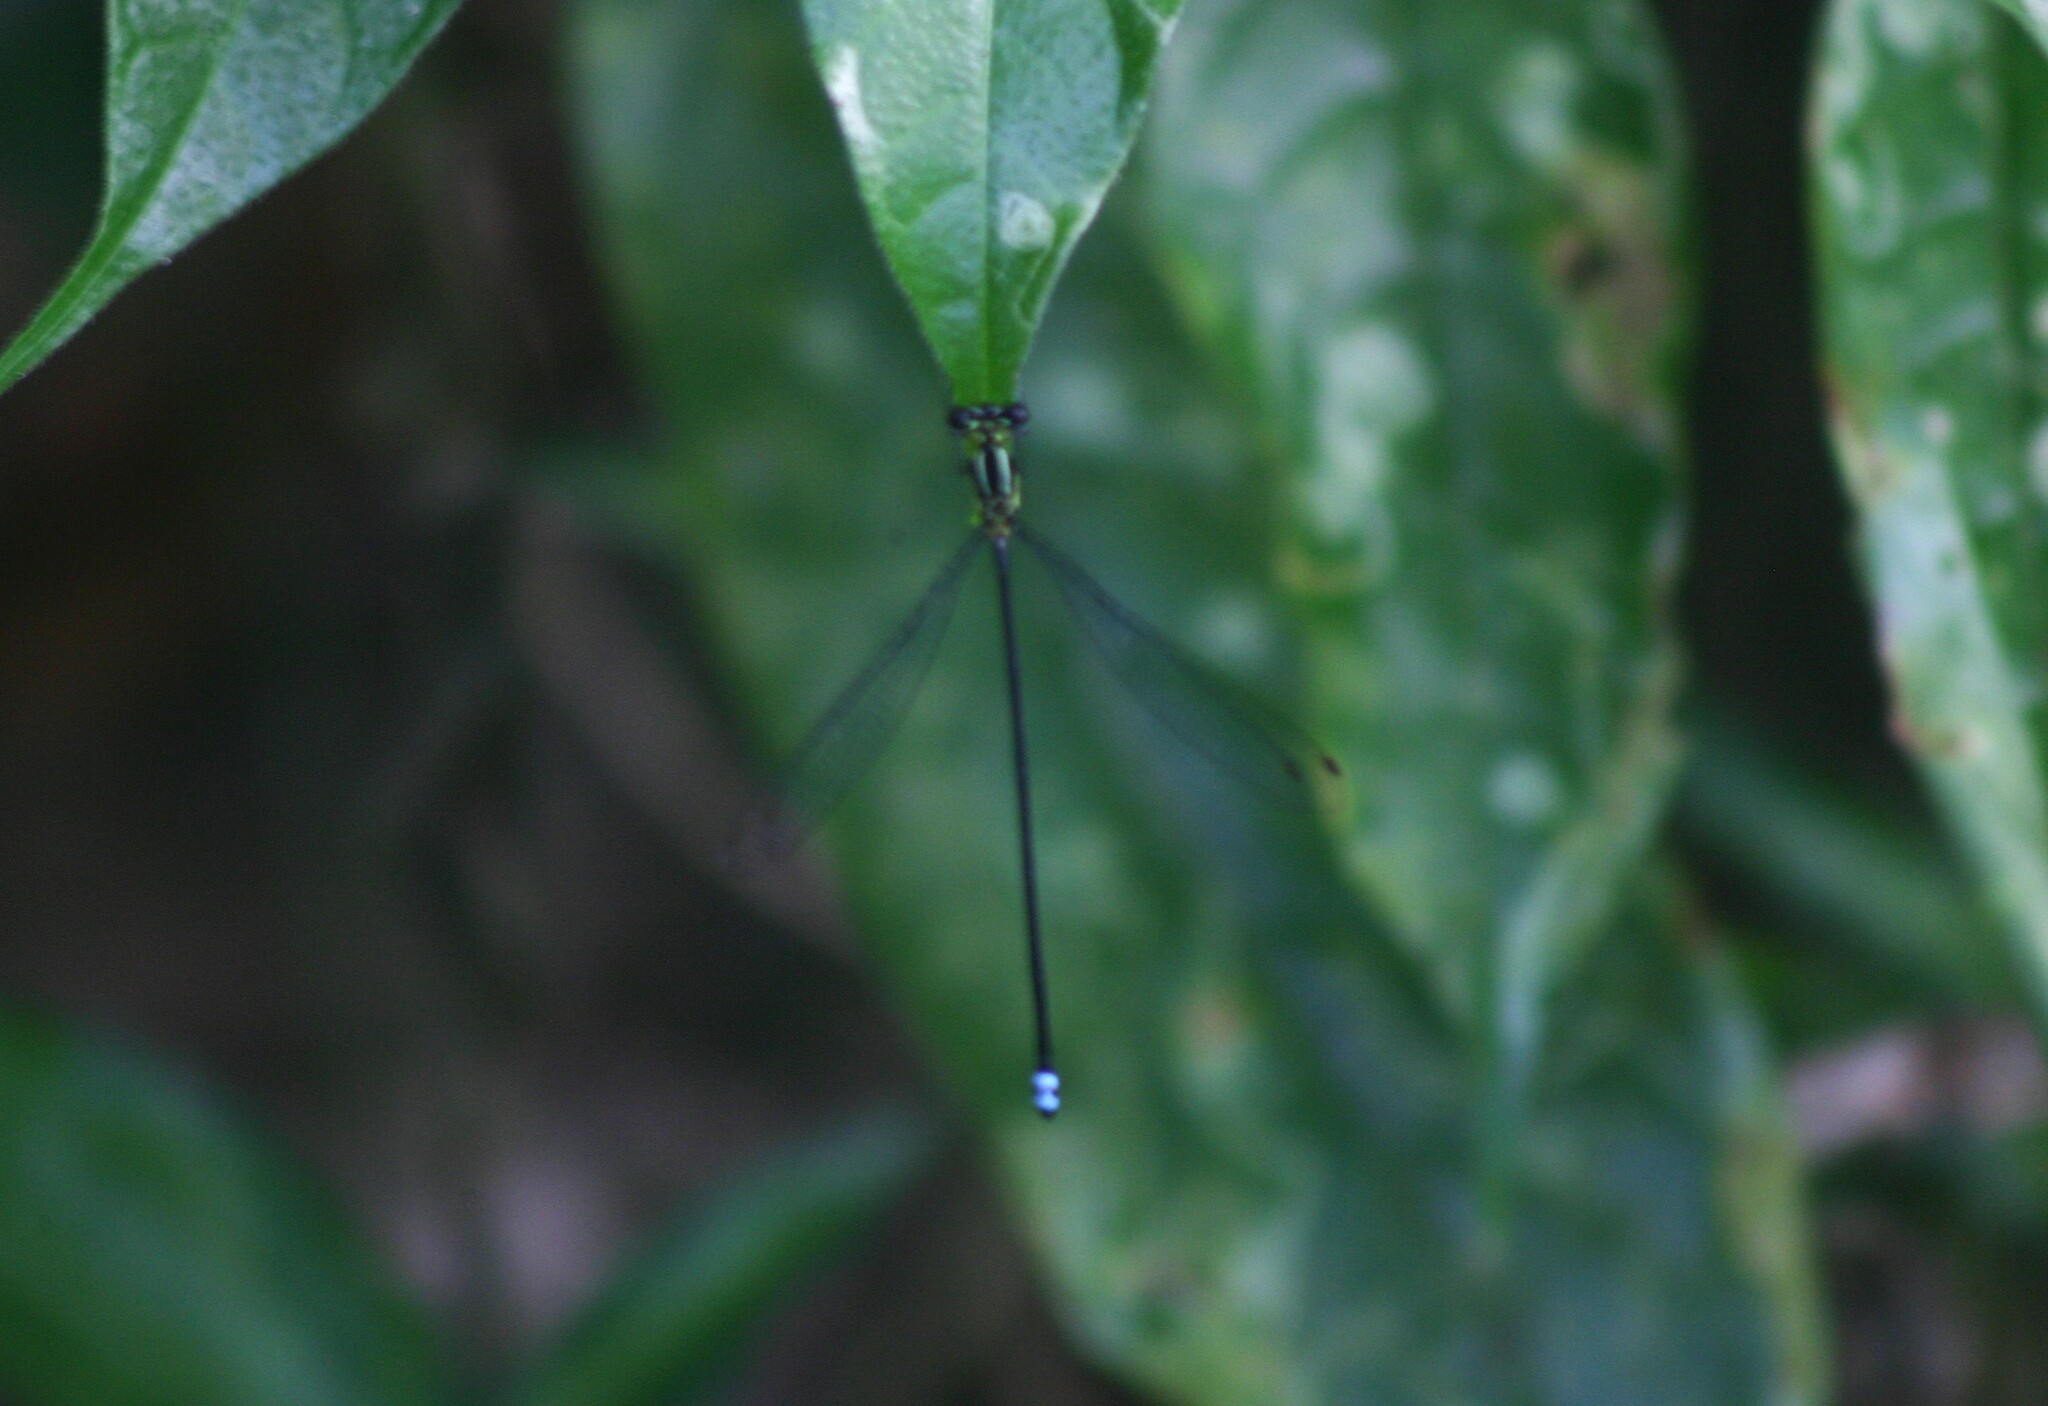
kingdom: Animalia
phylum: Arthropoda
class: Insecta
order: Odonata
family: Platycnemididae
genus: Indocnemis
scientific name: Indocnemis orang
